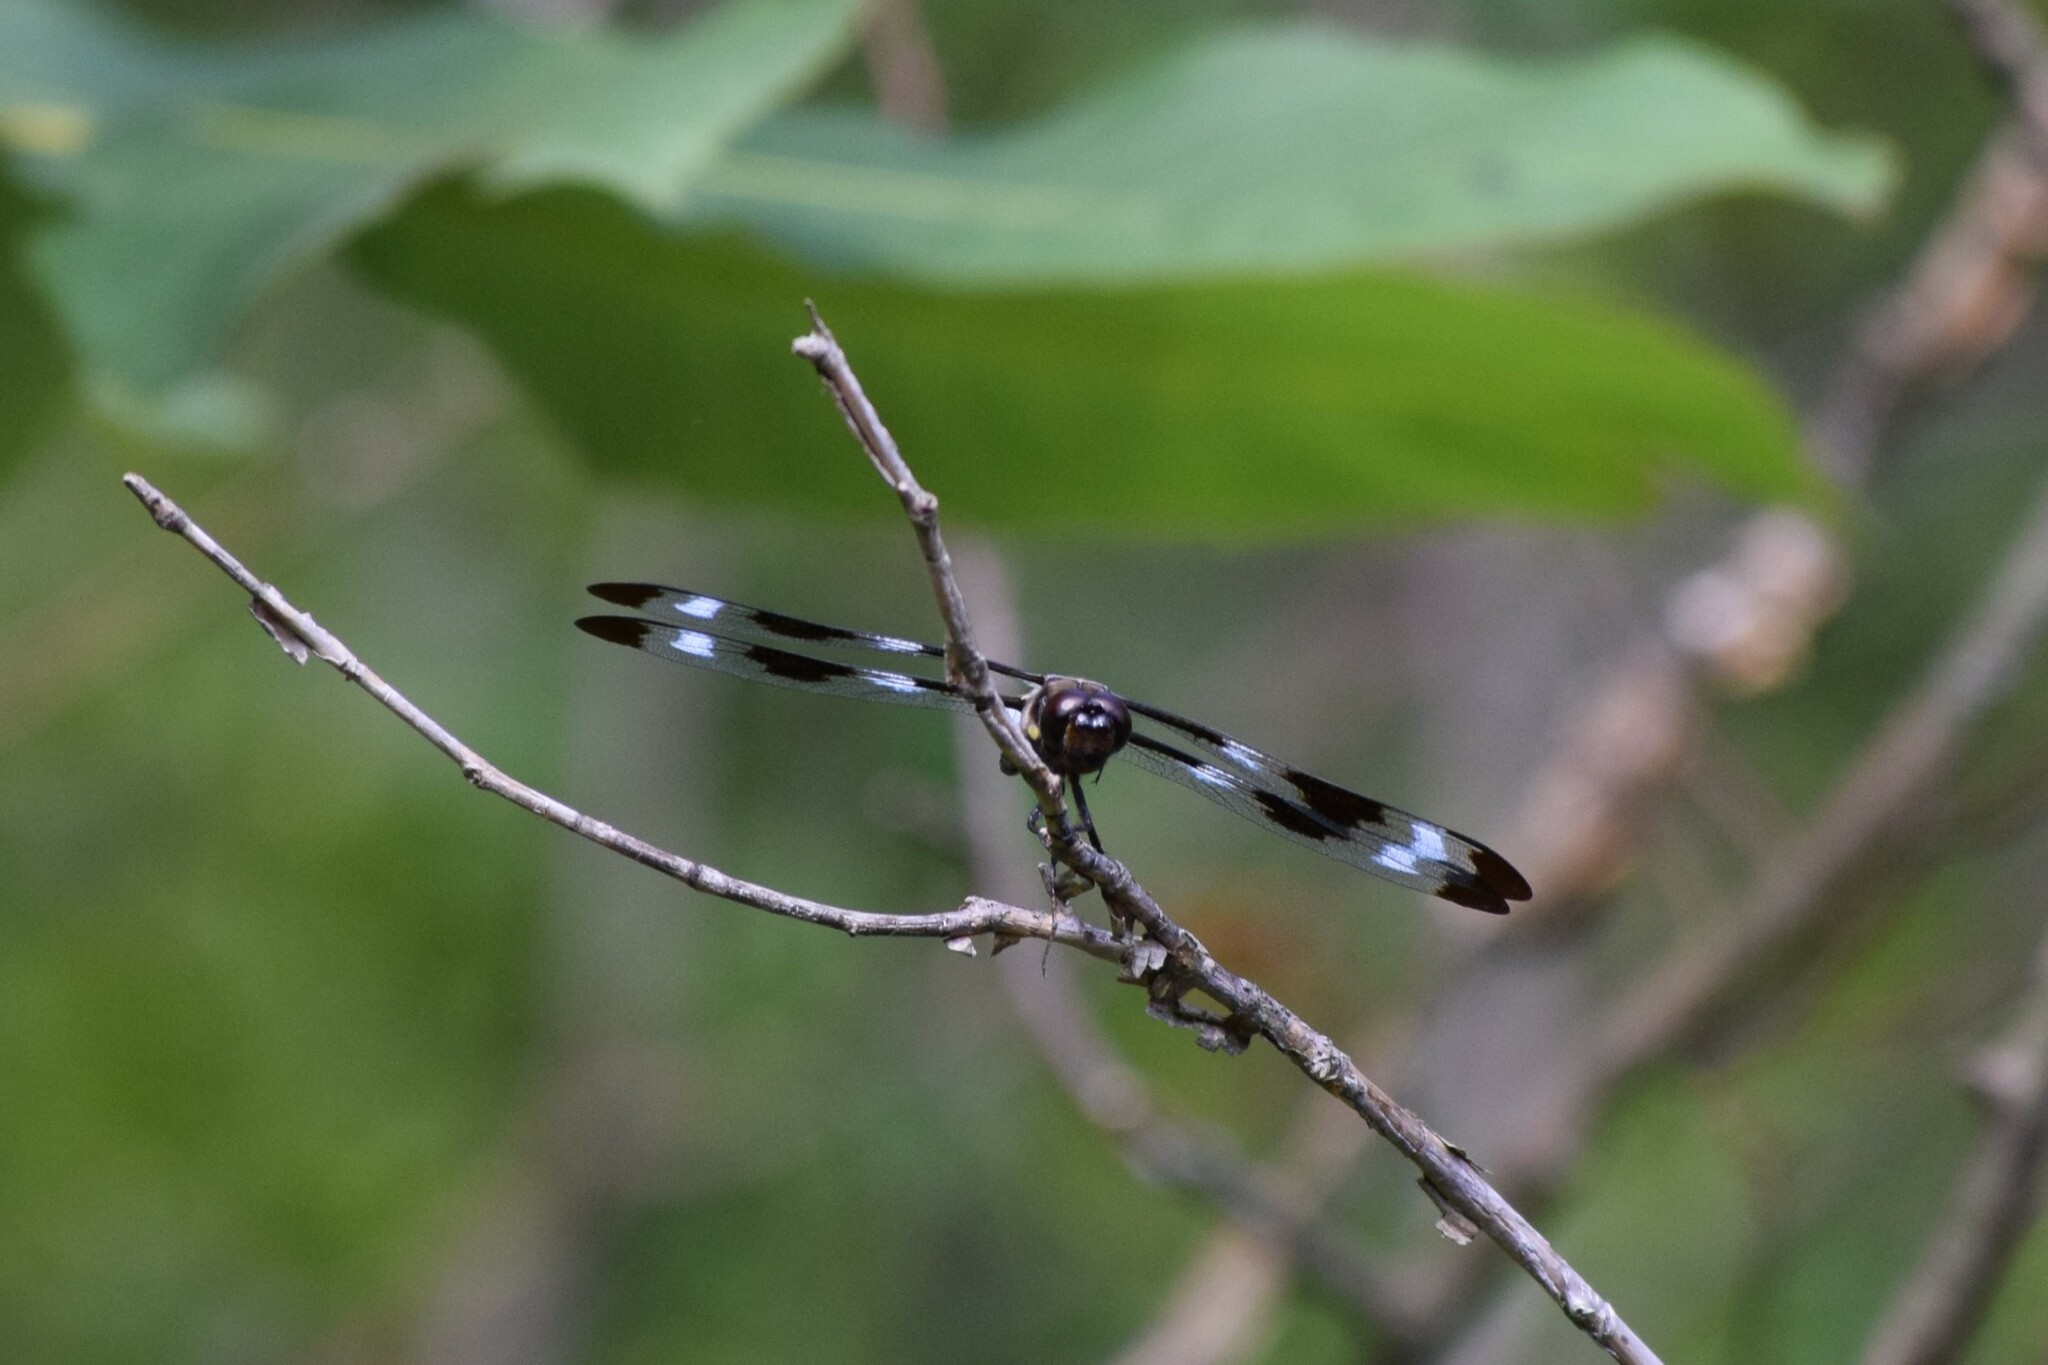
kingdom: Animalia
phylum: Arthropoda
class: Insecta
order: Odonata
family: Libellulidae
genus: Libellula
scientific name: Libellula pulchella
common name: Twelve-spotted skimmer
